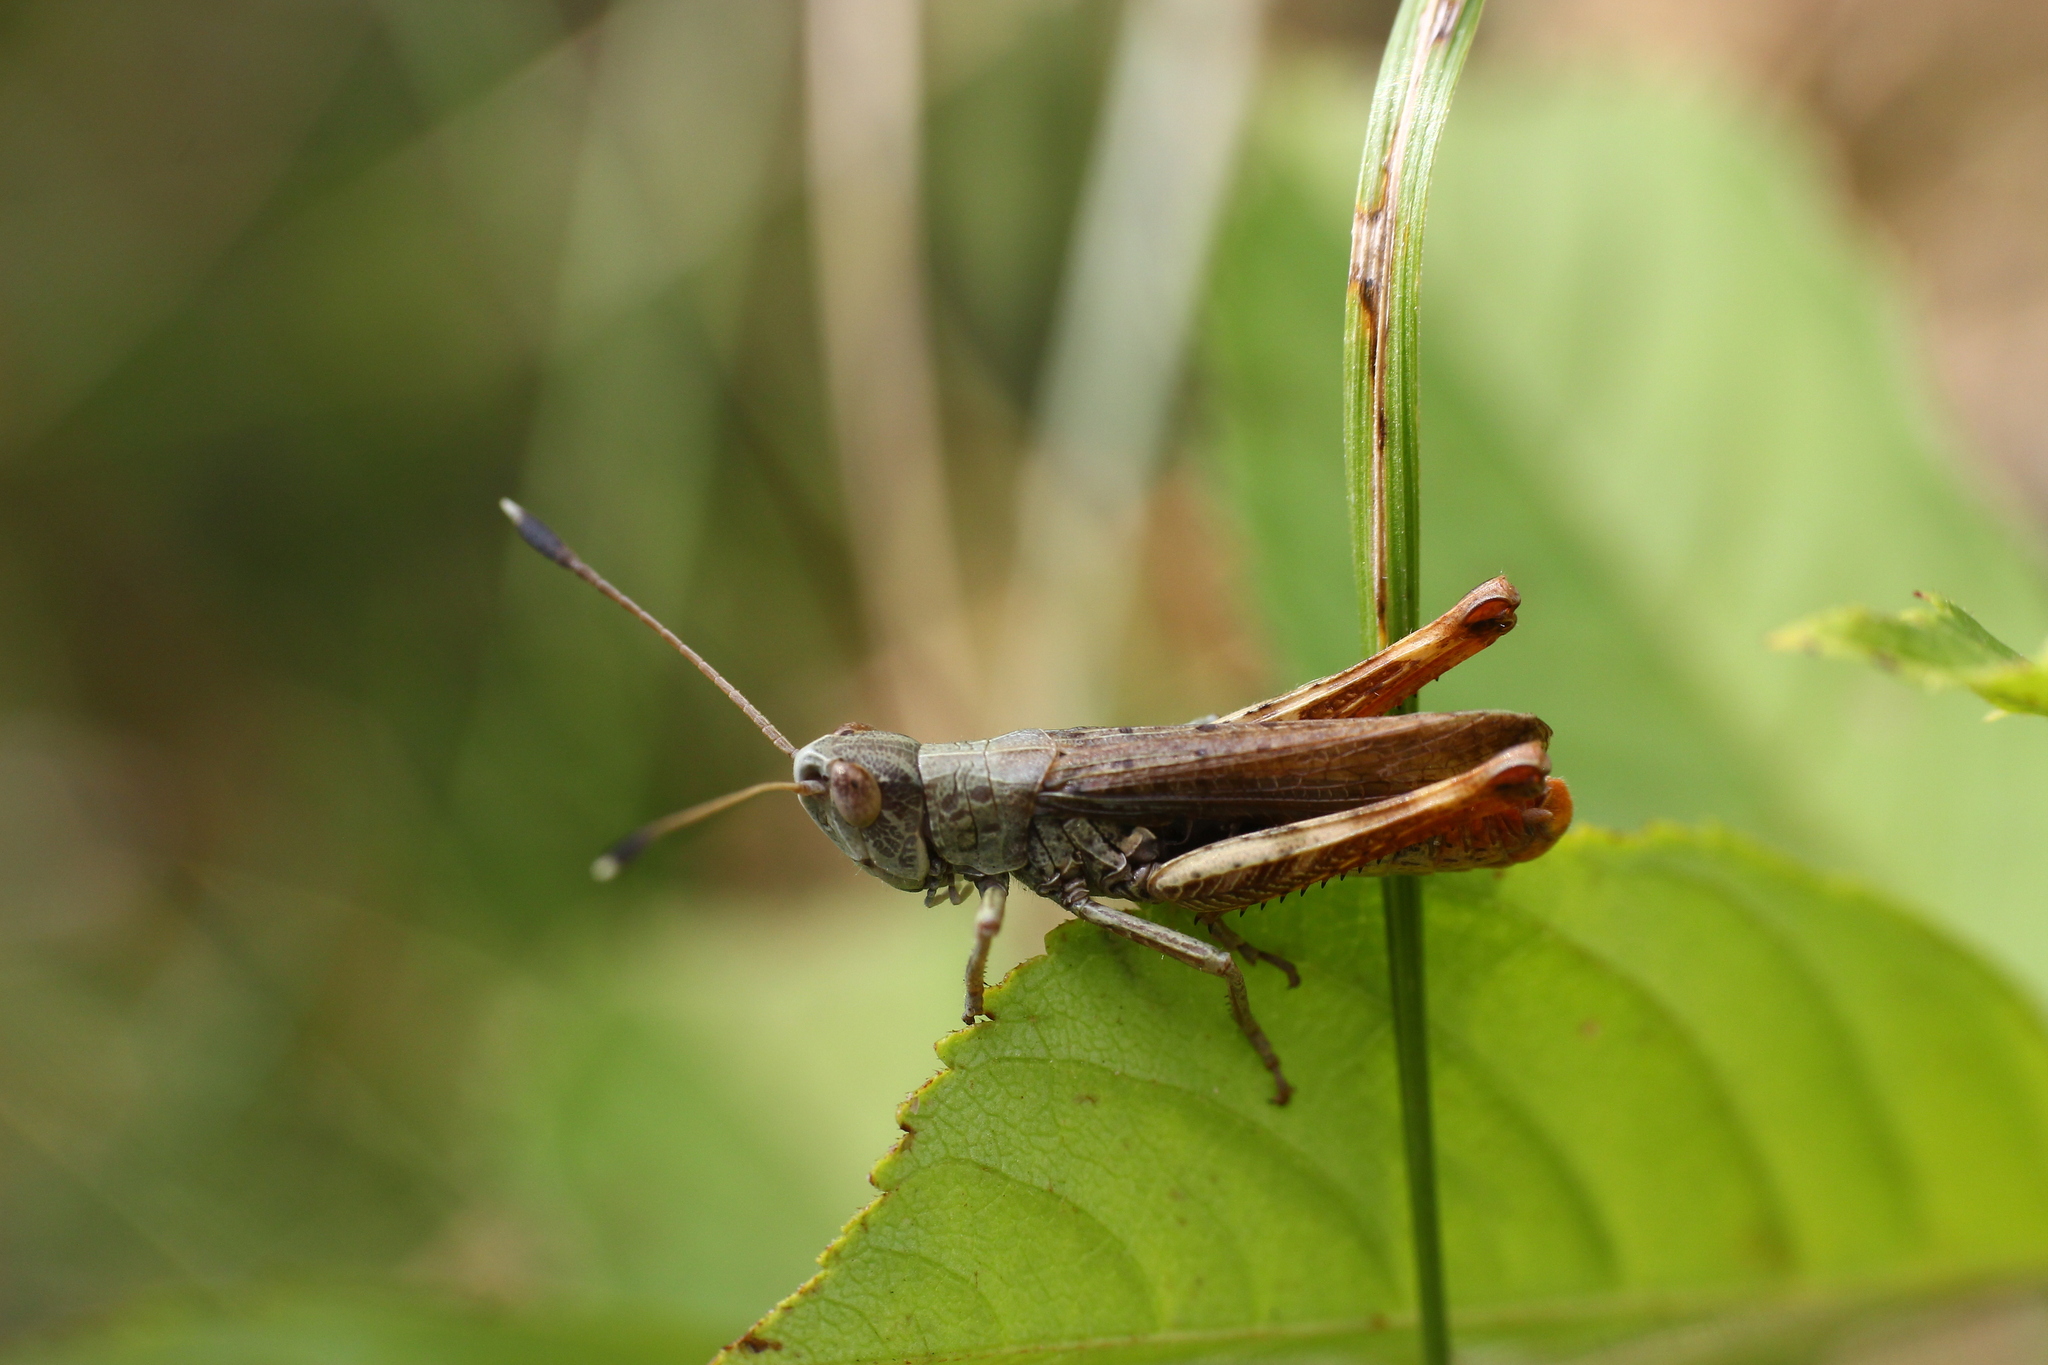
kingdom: Animalia
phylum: Arthropoda
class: Insecta
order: Orthoptera
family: Acrididae
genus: Gomphocerippus
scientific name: Gomphocerippus rufus
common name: Rufous grasshopper
